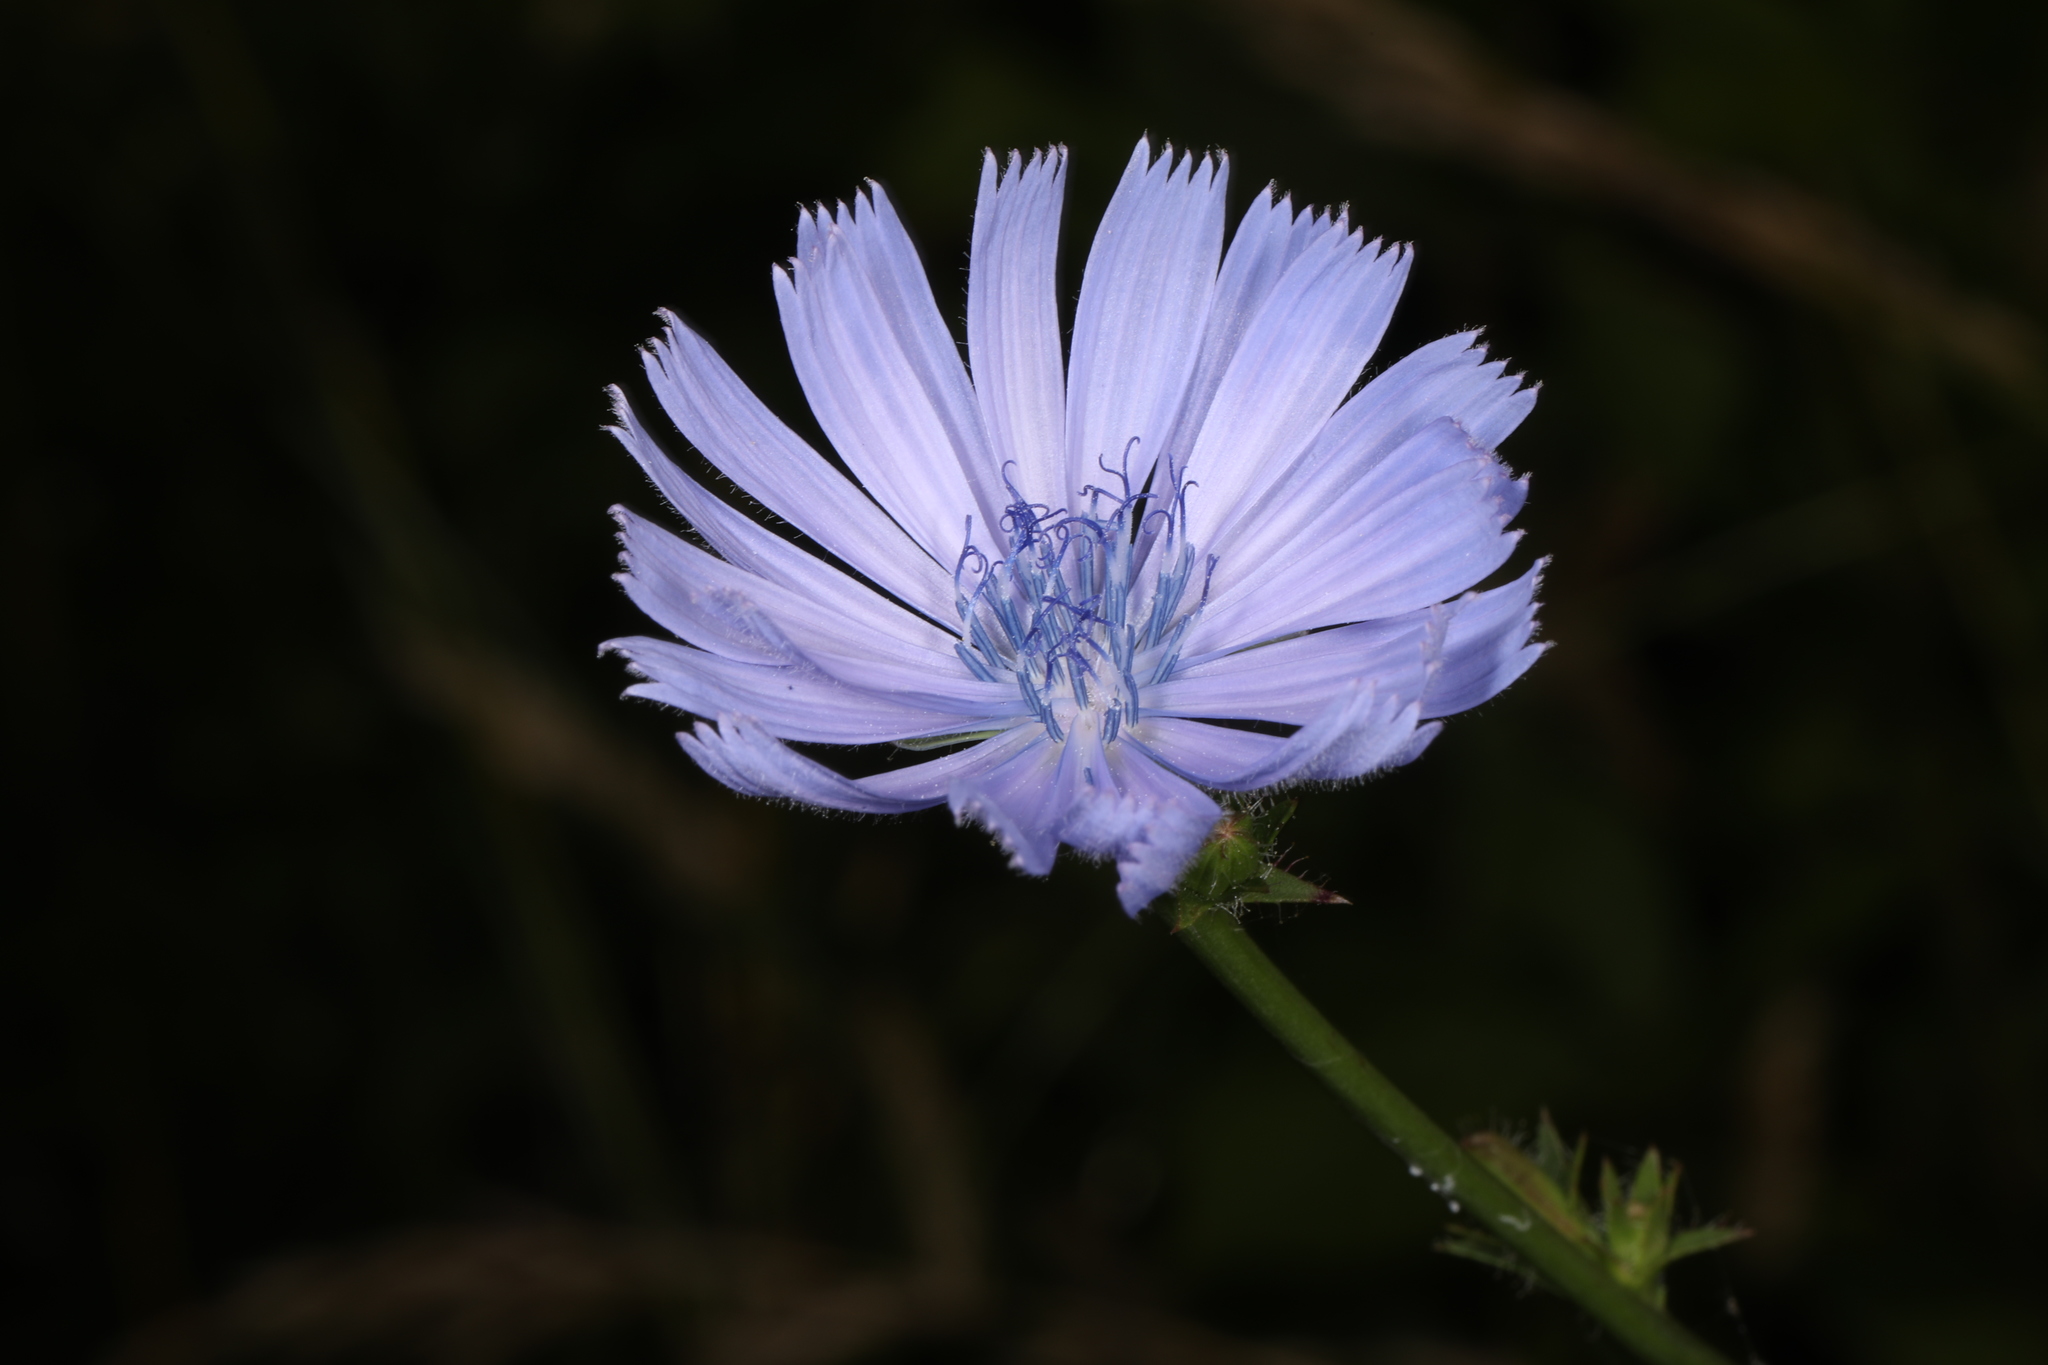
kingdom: Plantae
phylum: Tracheophyta
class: Magnoliopsida
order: Asterales
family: Asteraceae
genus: Cichorium
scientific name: Cichorium intybus
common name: Chicory
